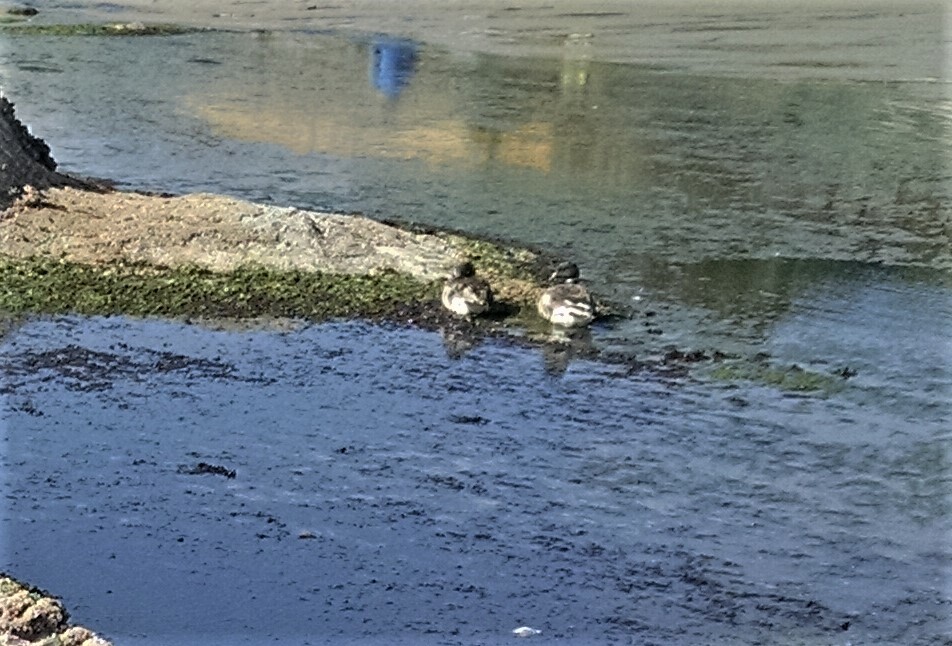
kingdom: Animalia
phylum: Chordata
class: Aves
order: Anseriformes
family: Anatidae
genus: Branta
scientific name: Branta bernicla
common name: Brant goose
